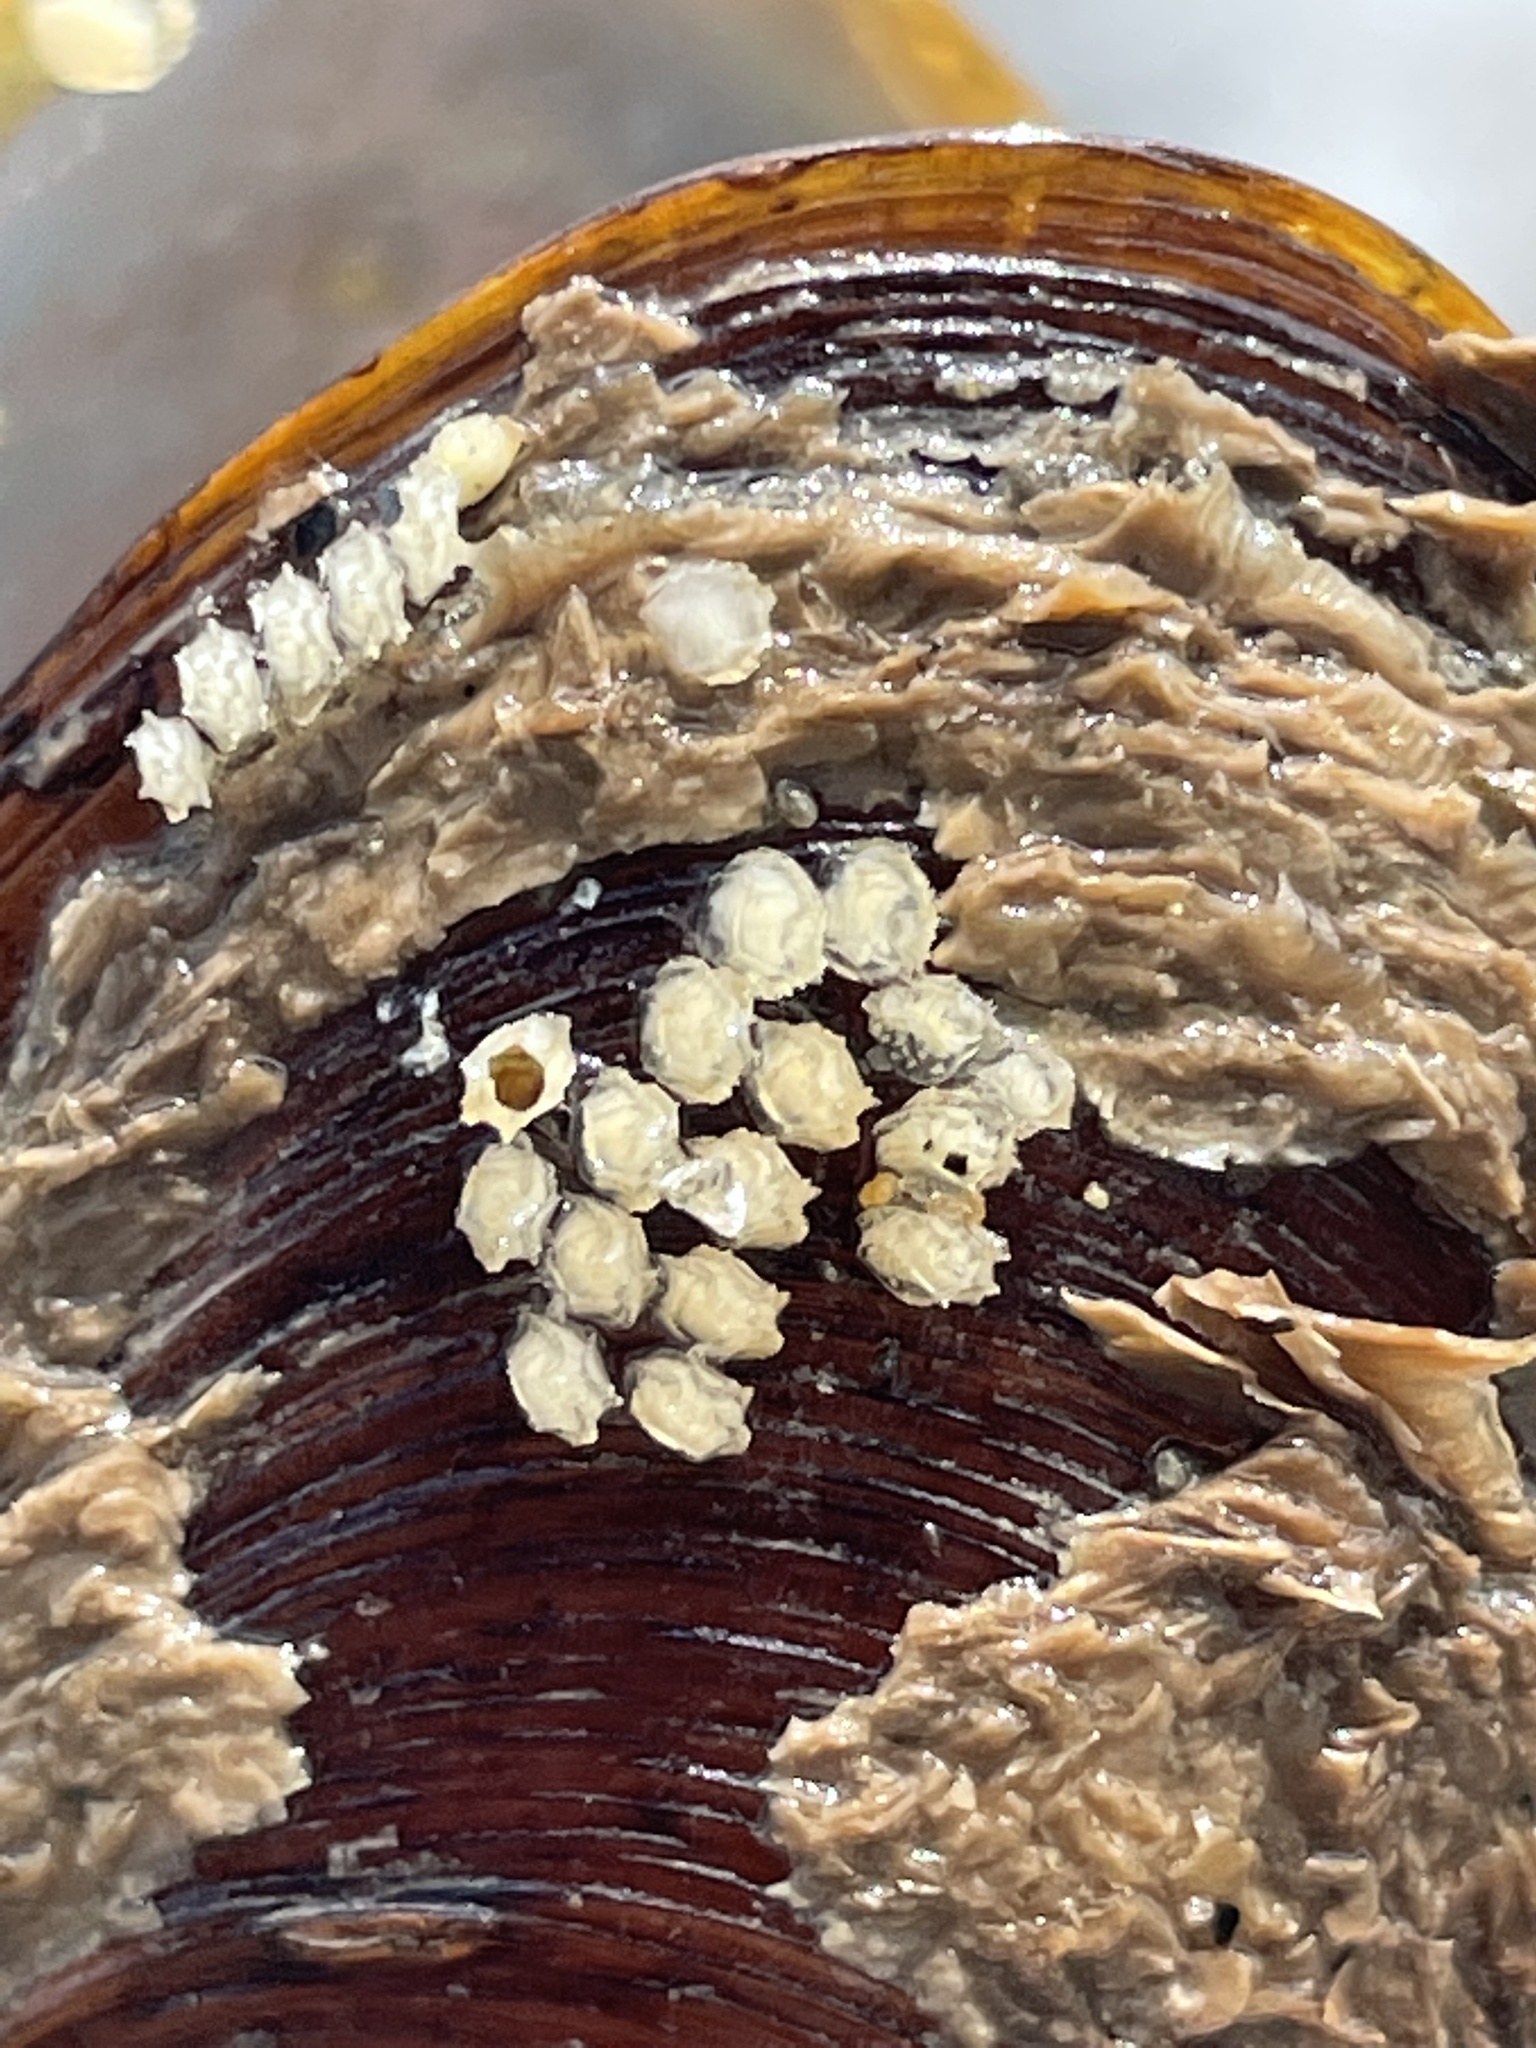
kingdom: Animalia
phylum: Mollusca
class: Gastropoda
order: Neogastropoda
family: Nassariidae
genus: Ilyanassa
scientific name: Ilyanassa obsoleta
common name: Eastern mudsnail
